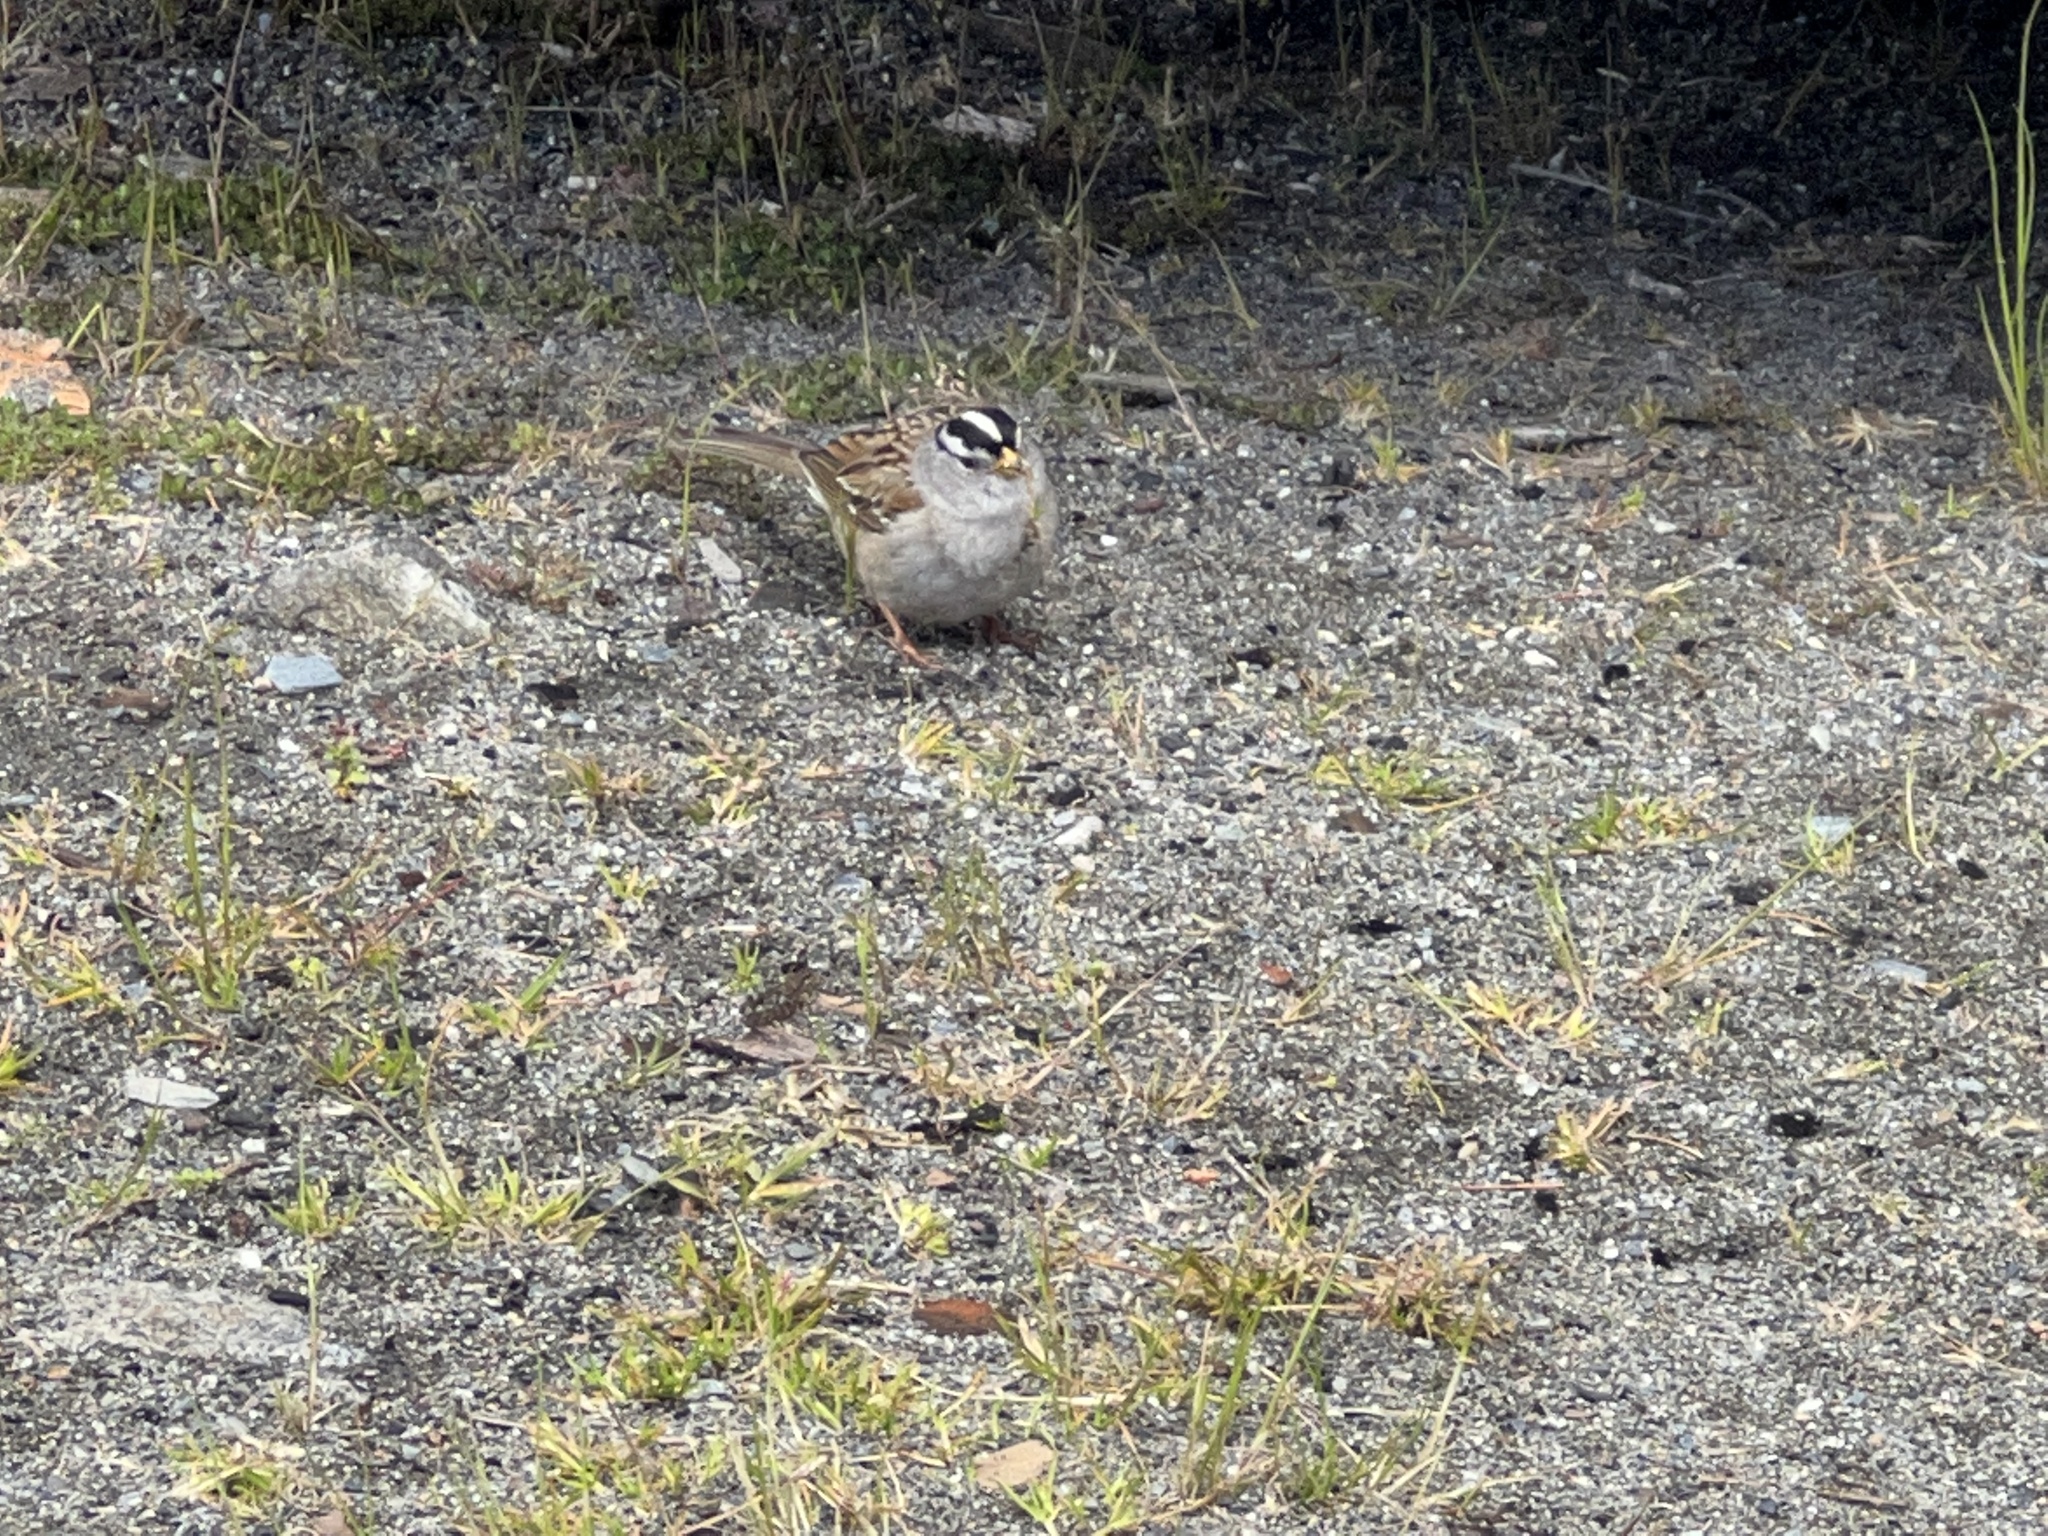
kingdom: Animalia
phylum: Chordata
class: Aves
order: Passeriformes
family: Passerellidae
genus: Zonotrichia
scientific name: Zonotrichia leucophrys
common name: White-crowned sparrow
